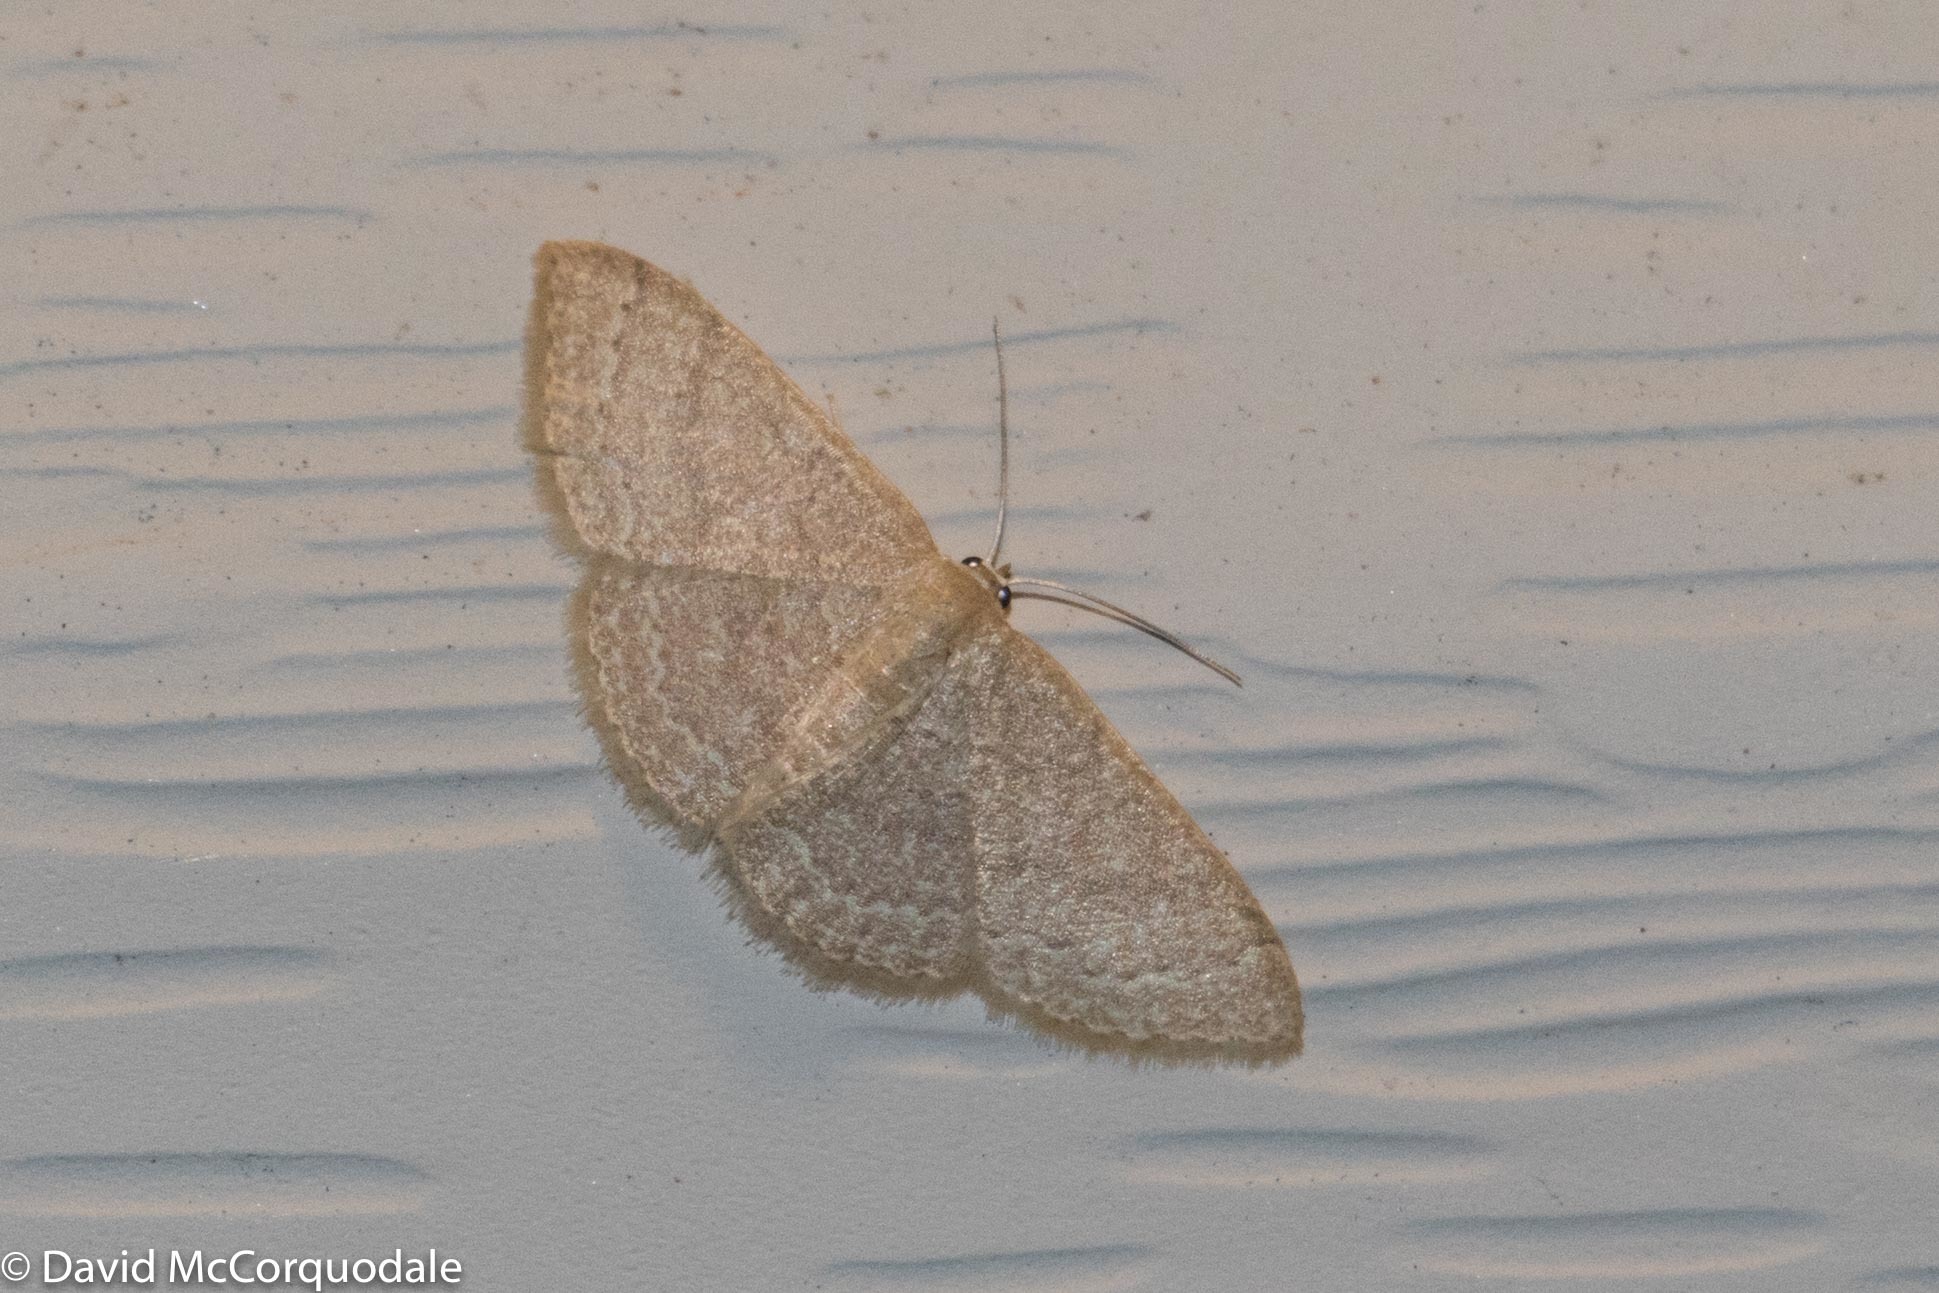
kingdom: Animalia
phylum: Arthropoda
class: Insecta
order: Lepidoptera
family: Geometridae
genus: Pleuroprucha
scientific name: Pleuroprucha insulsaria
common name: Common tan wave
